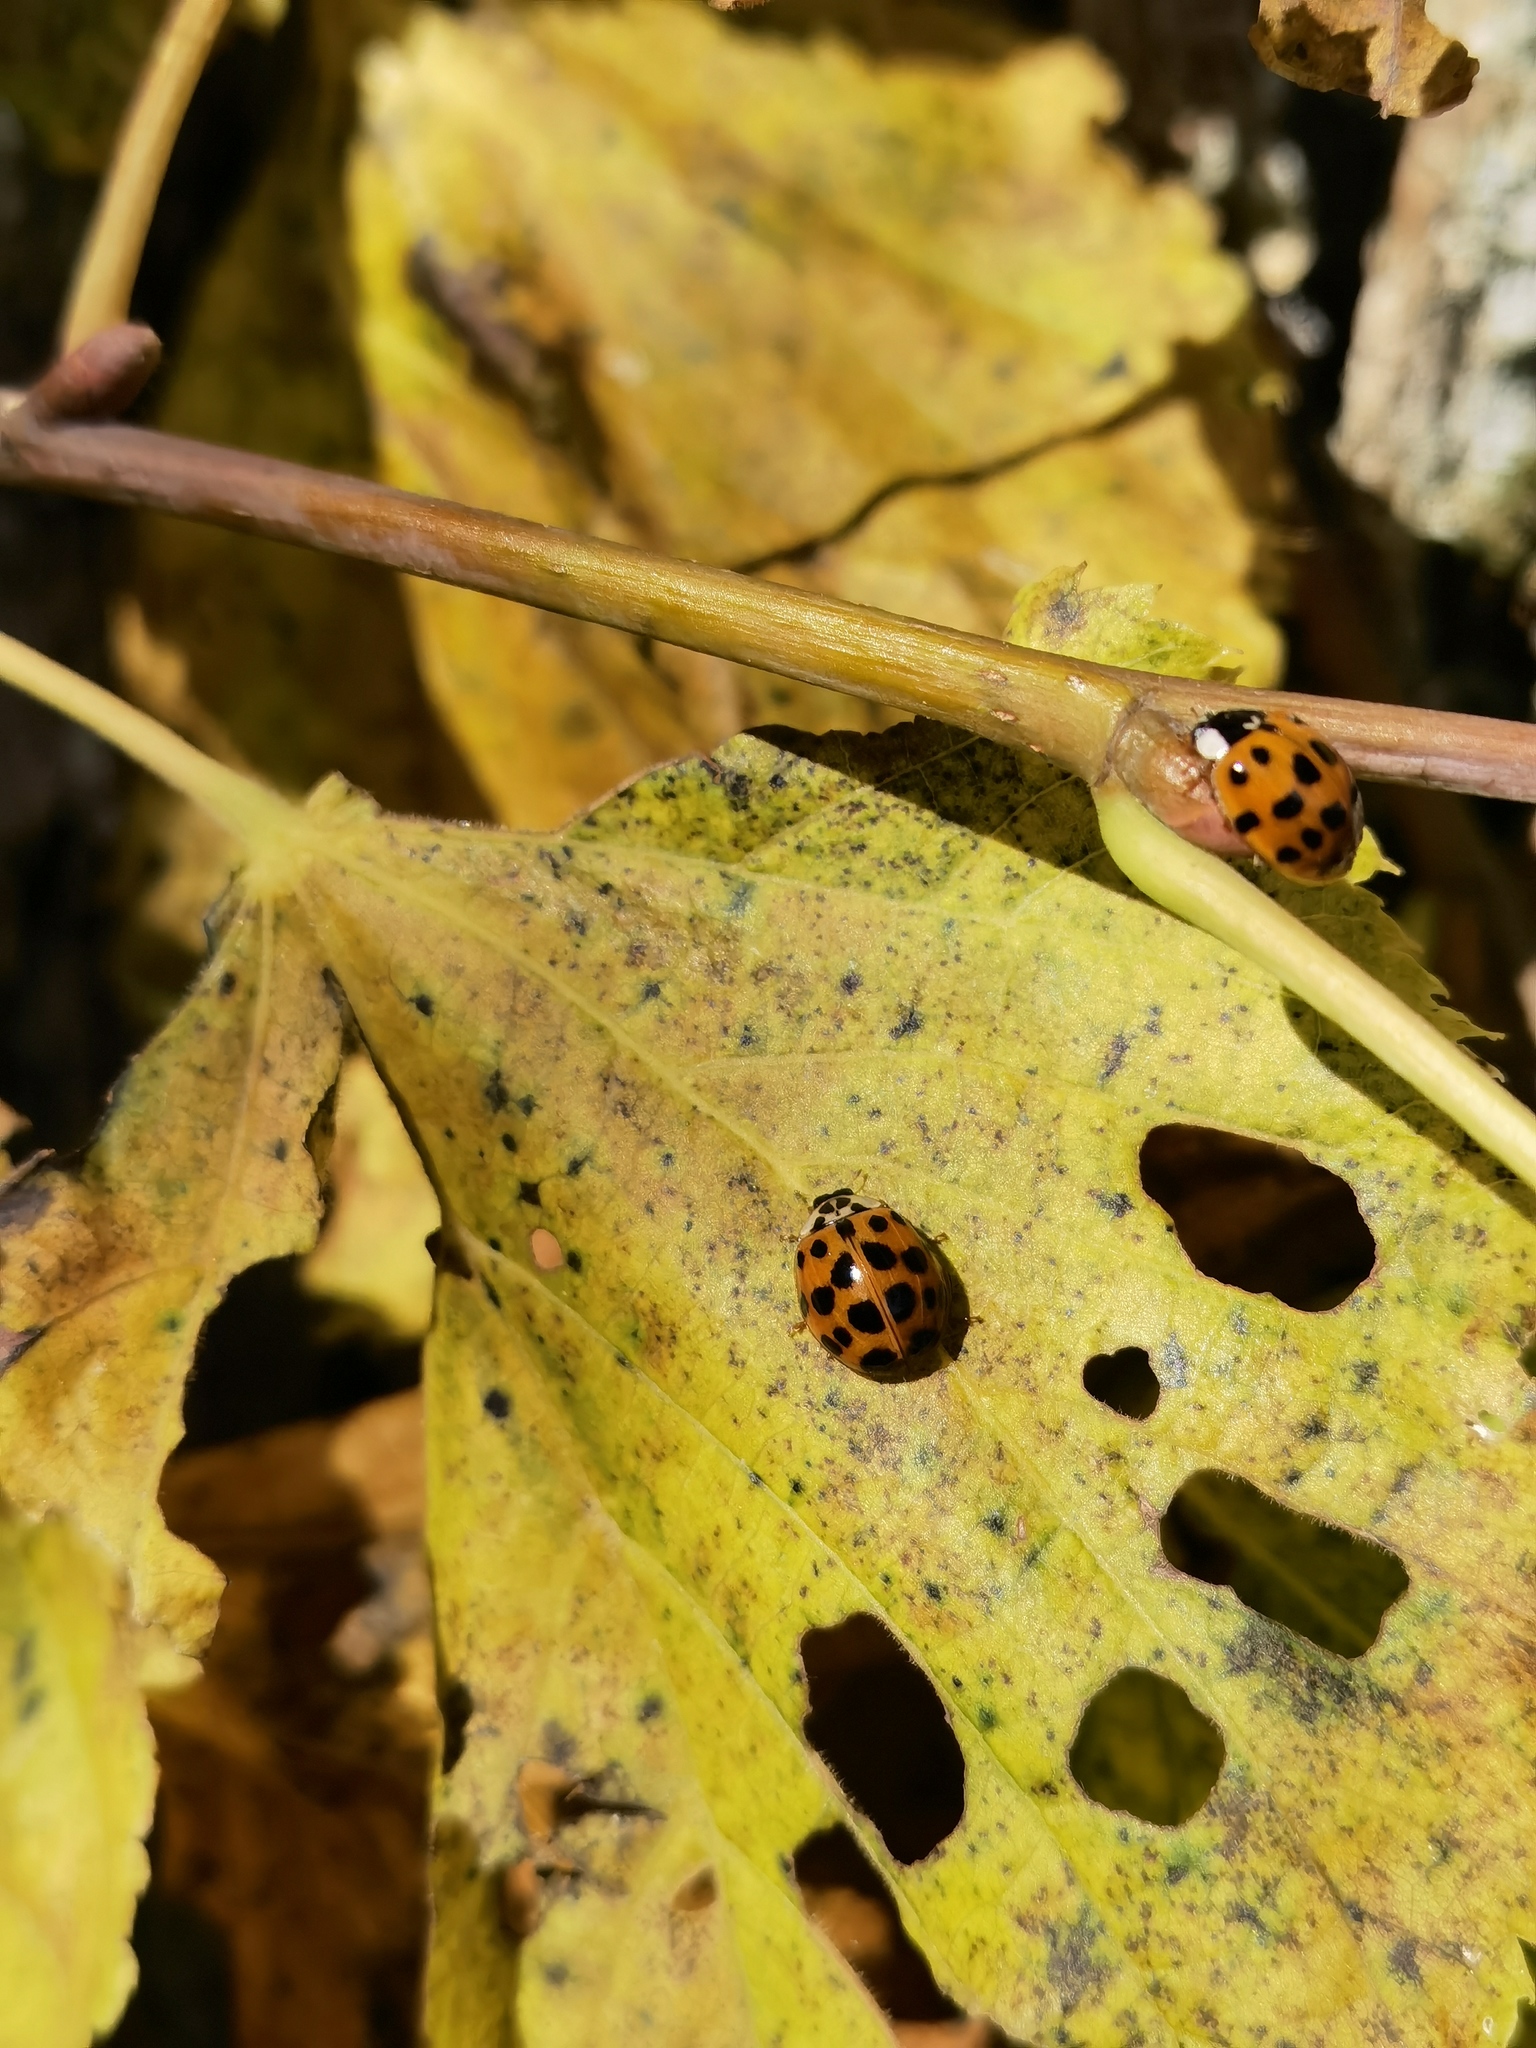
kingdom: Animalia
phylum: Arthropoda
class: Insecta
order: Coleoptera
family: Coccinellidae
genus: Harmonia
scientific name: Harmonia axyridis
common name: Harlequin ladybird
